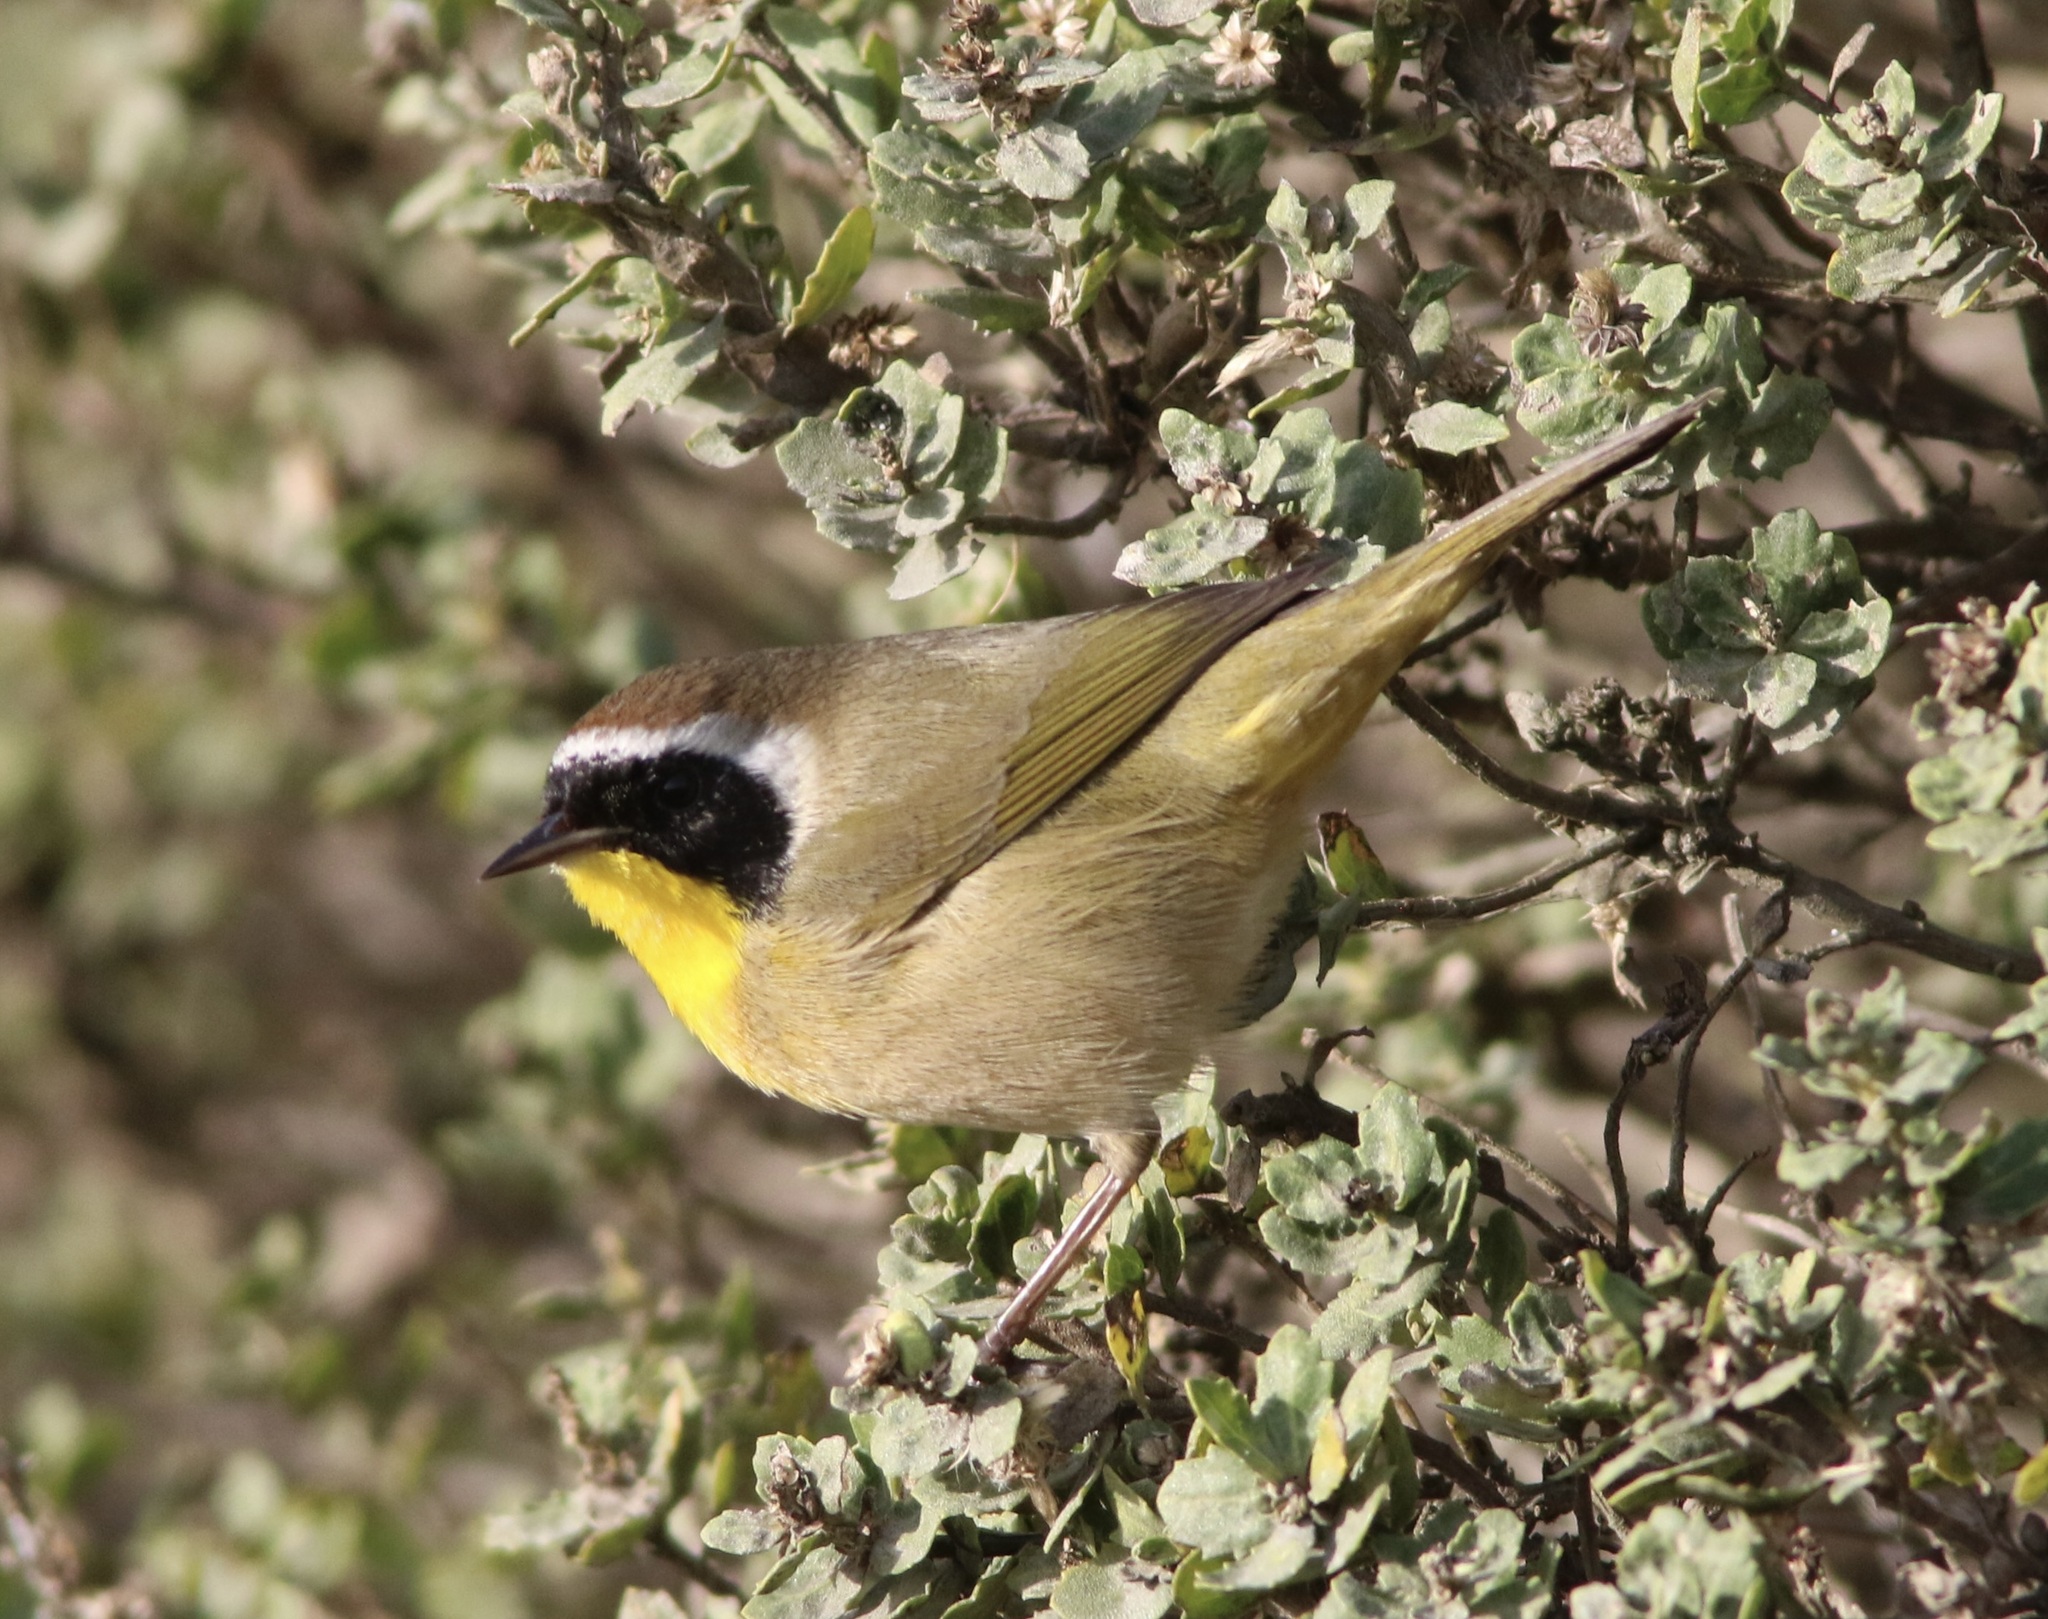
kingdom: Animalia
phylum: Chordata
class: Aves
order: Passeriformes
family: Parulidae
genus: Geothlypis
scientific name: Geothlypis trichas
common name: Common yellowthroat
